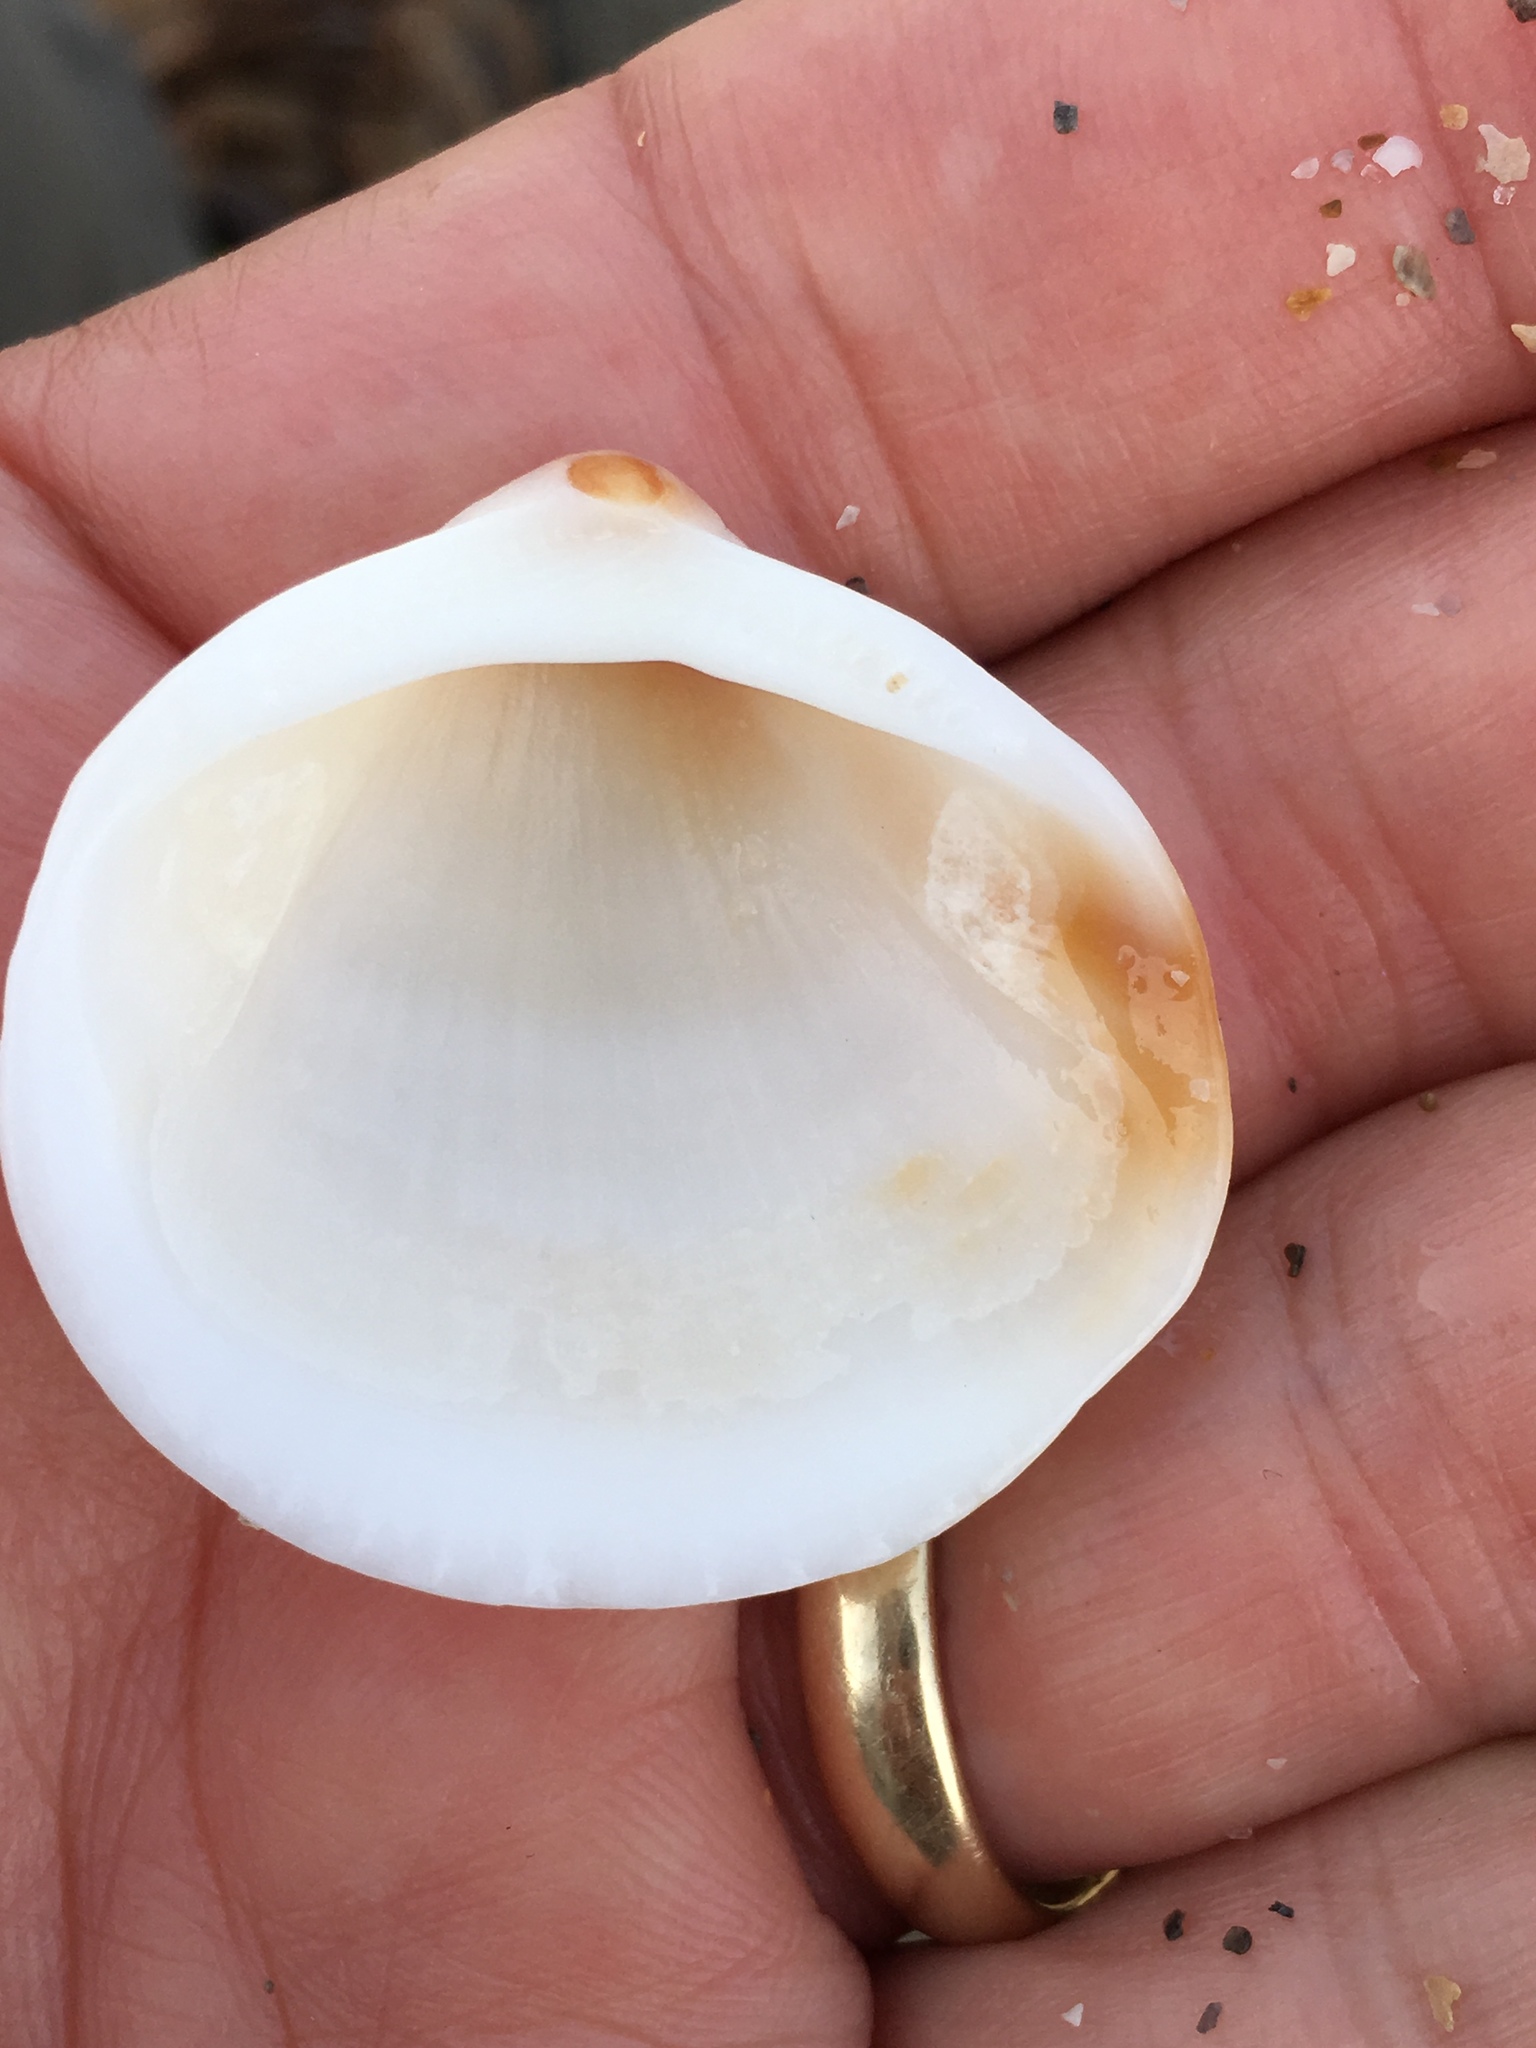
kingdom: Animalia
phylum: Mollusca
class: Bivalvia
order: Arcida
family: Glycymerididae
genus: Glycymeris
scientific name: Glycymeris spectralis
